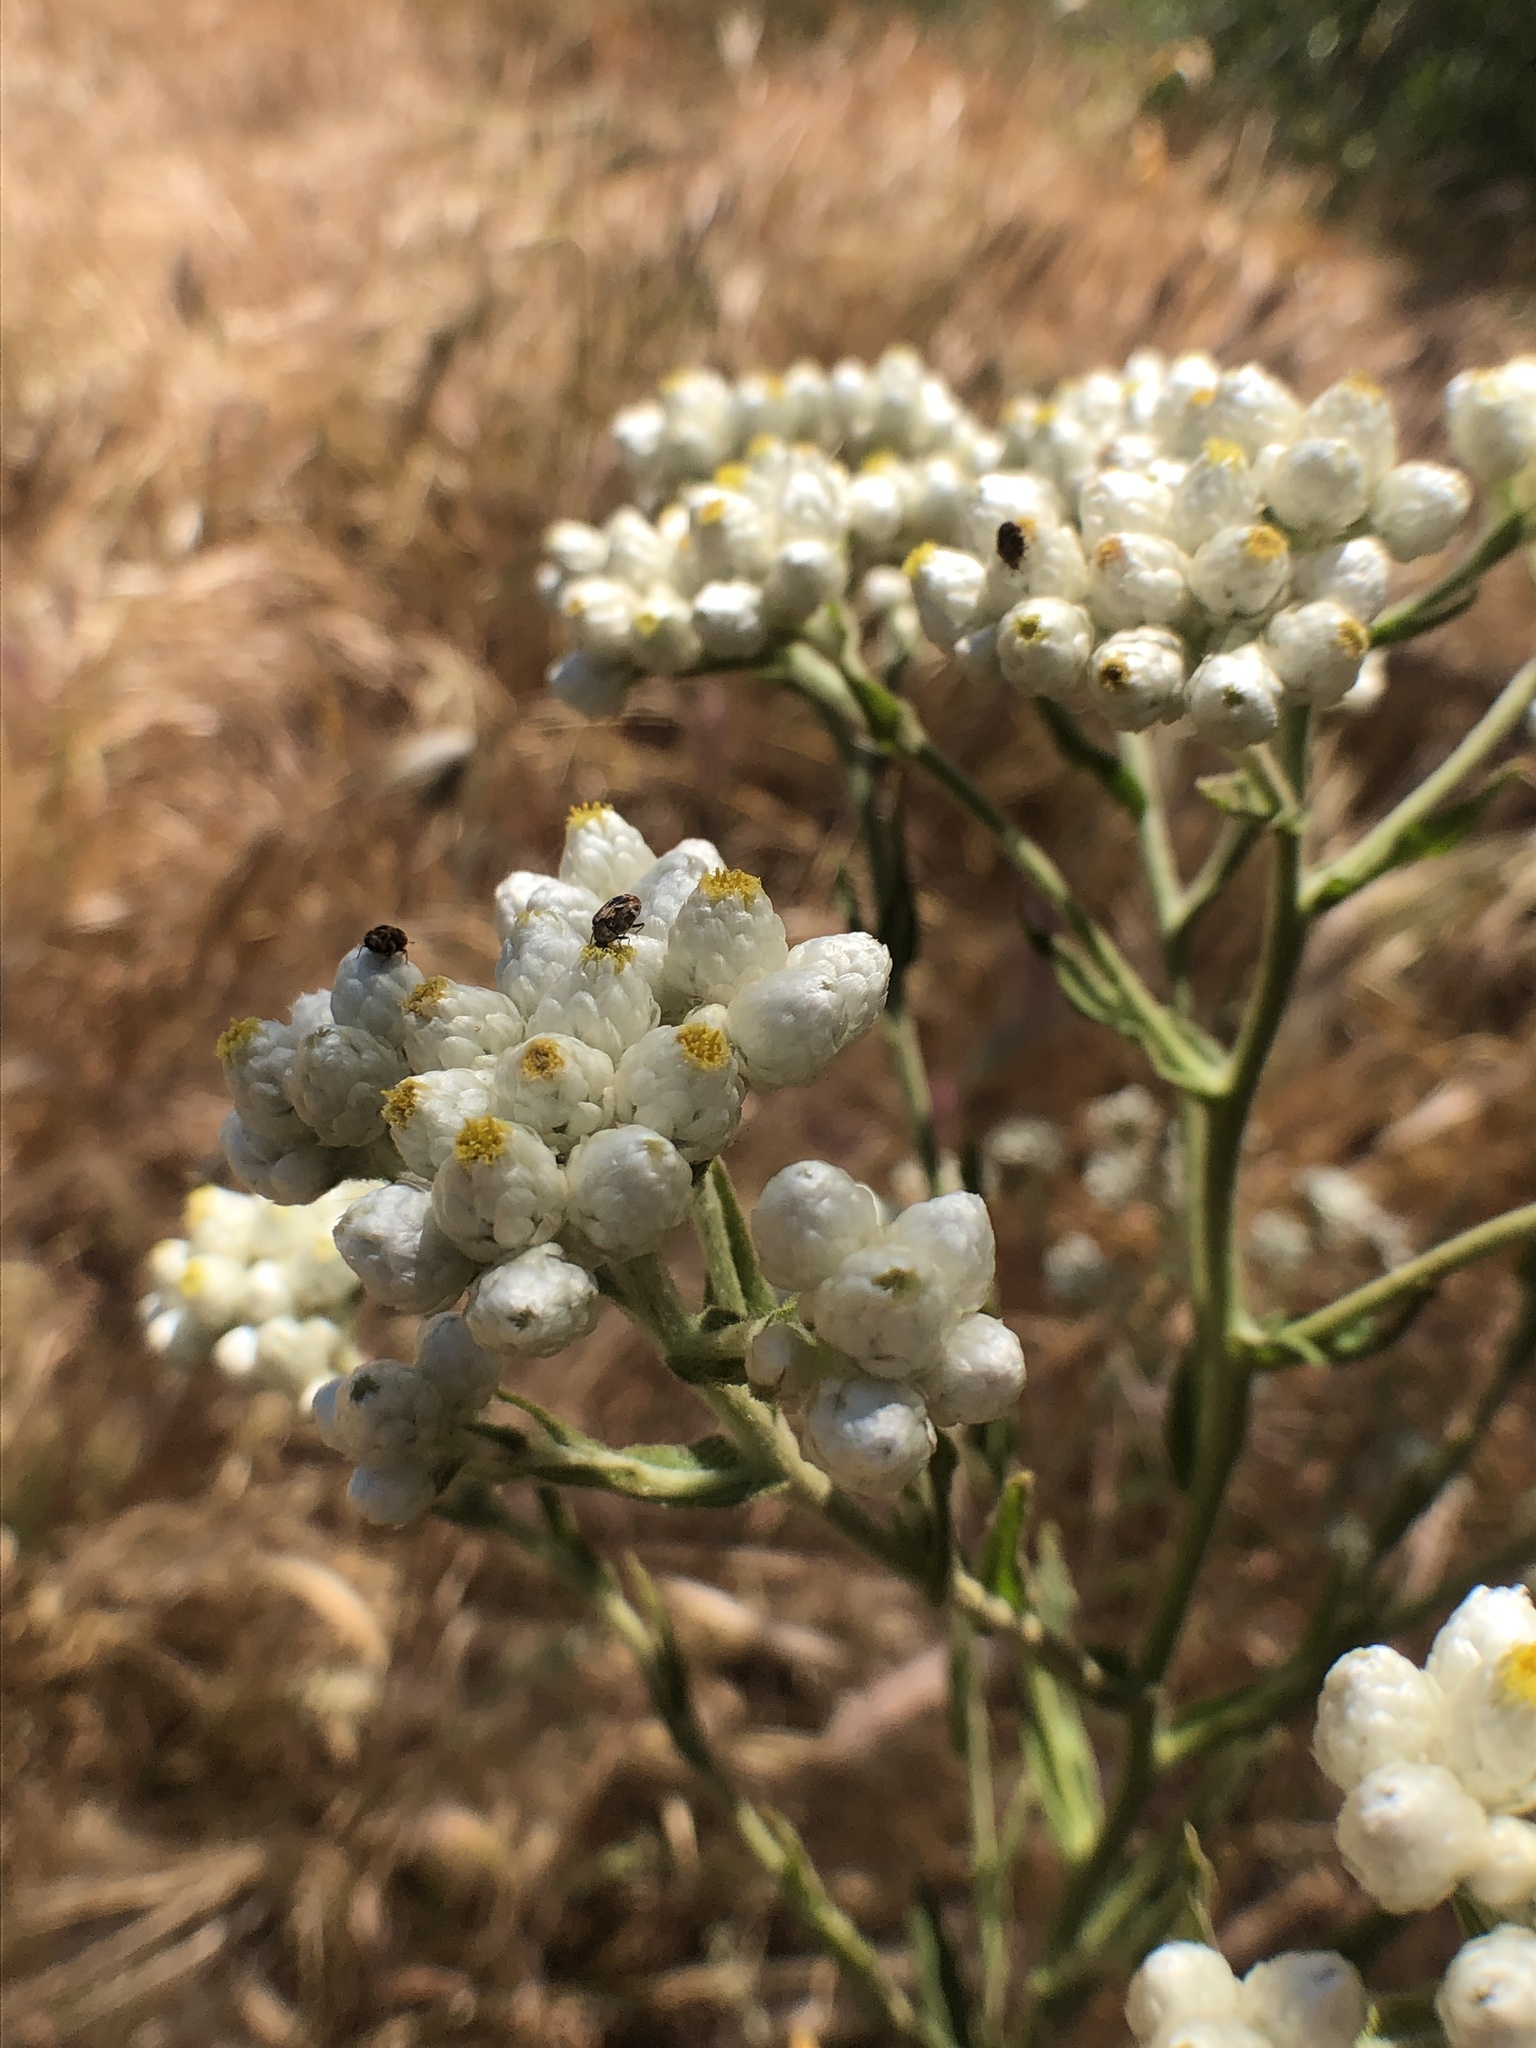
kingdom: Plantae
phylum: Tracheophyta
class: Magnoliopsida
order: Asterales
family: Asteraceae
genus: Pseudognaphalium
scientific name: Pseudognaphalium californicum
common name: California rabbit-tobacco
